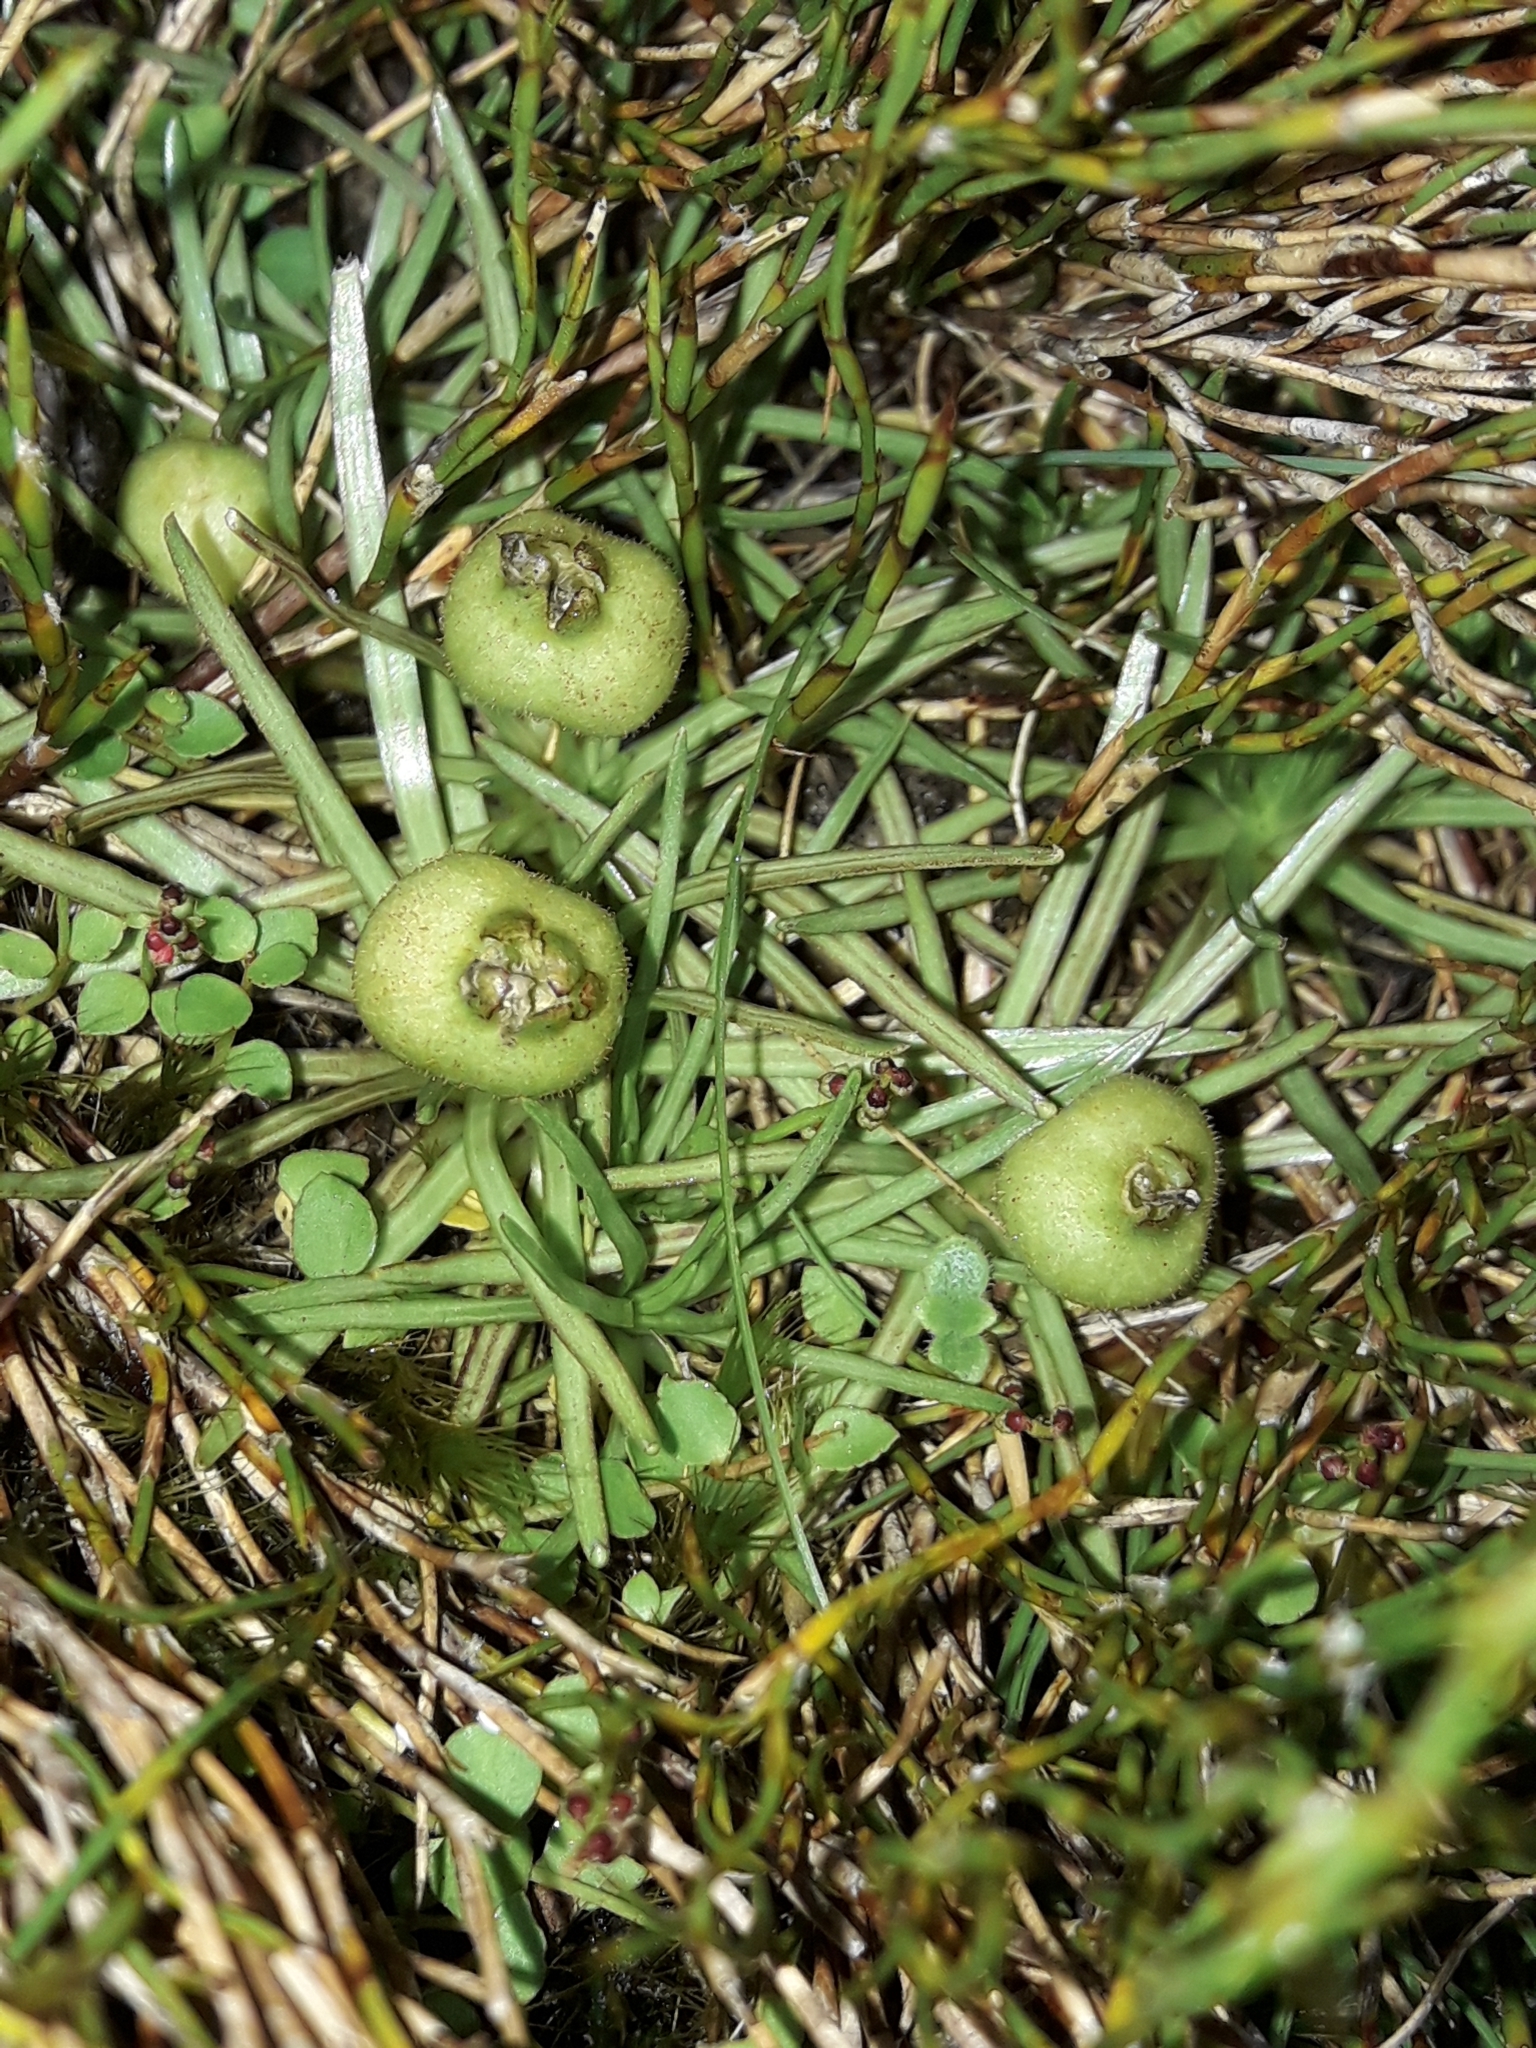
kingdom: Plantae
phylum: Tracheophyta
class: Magnoliopsida
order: Asterales
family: Stylidiaceae
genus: Oreostylidium
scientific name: Oreostylidium subulatum
